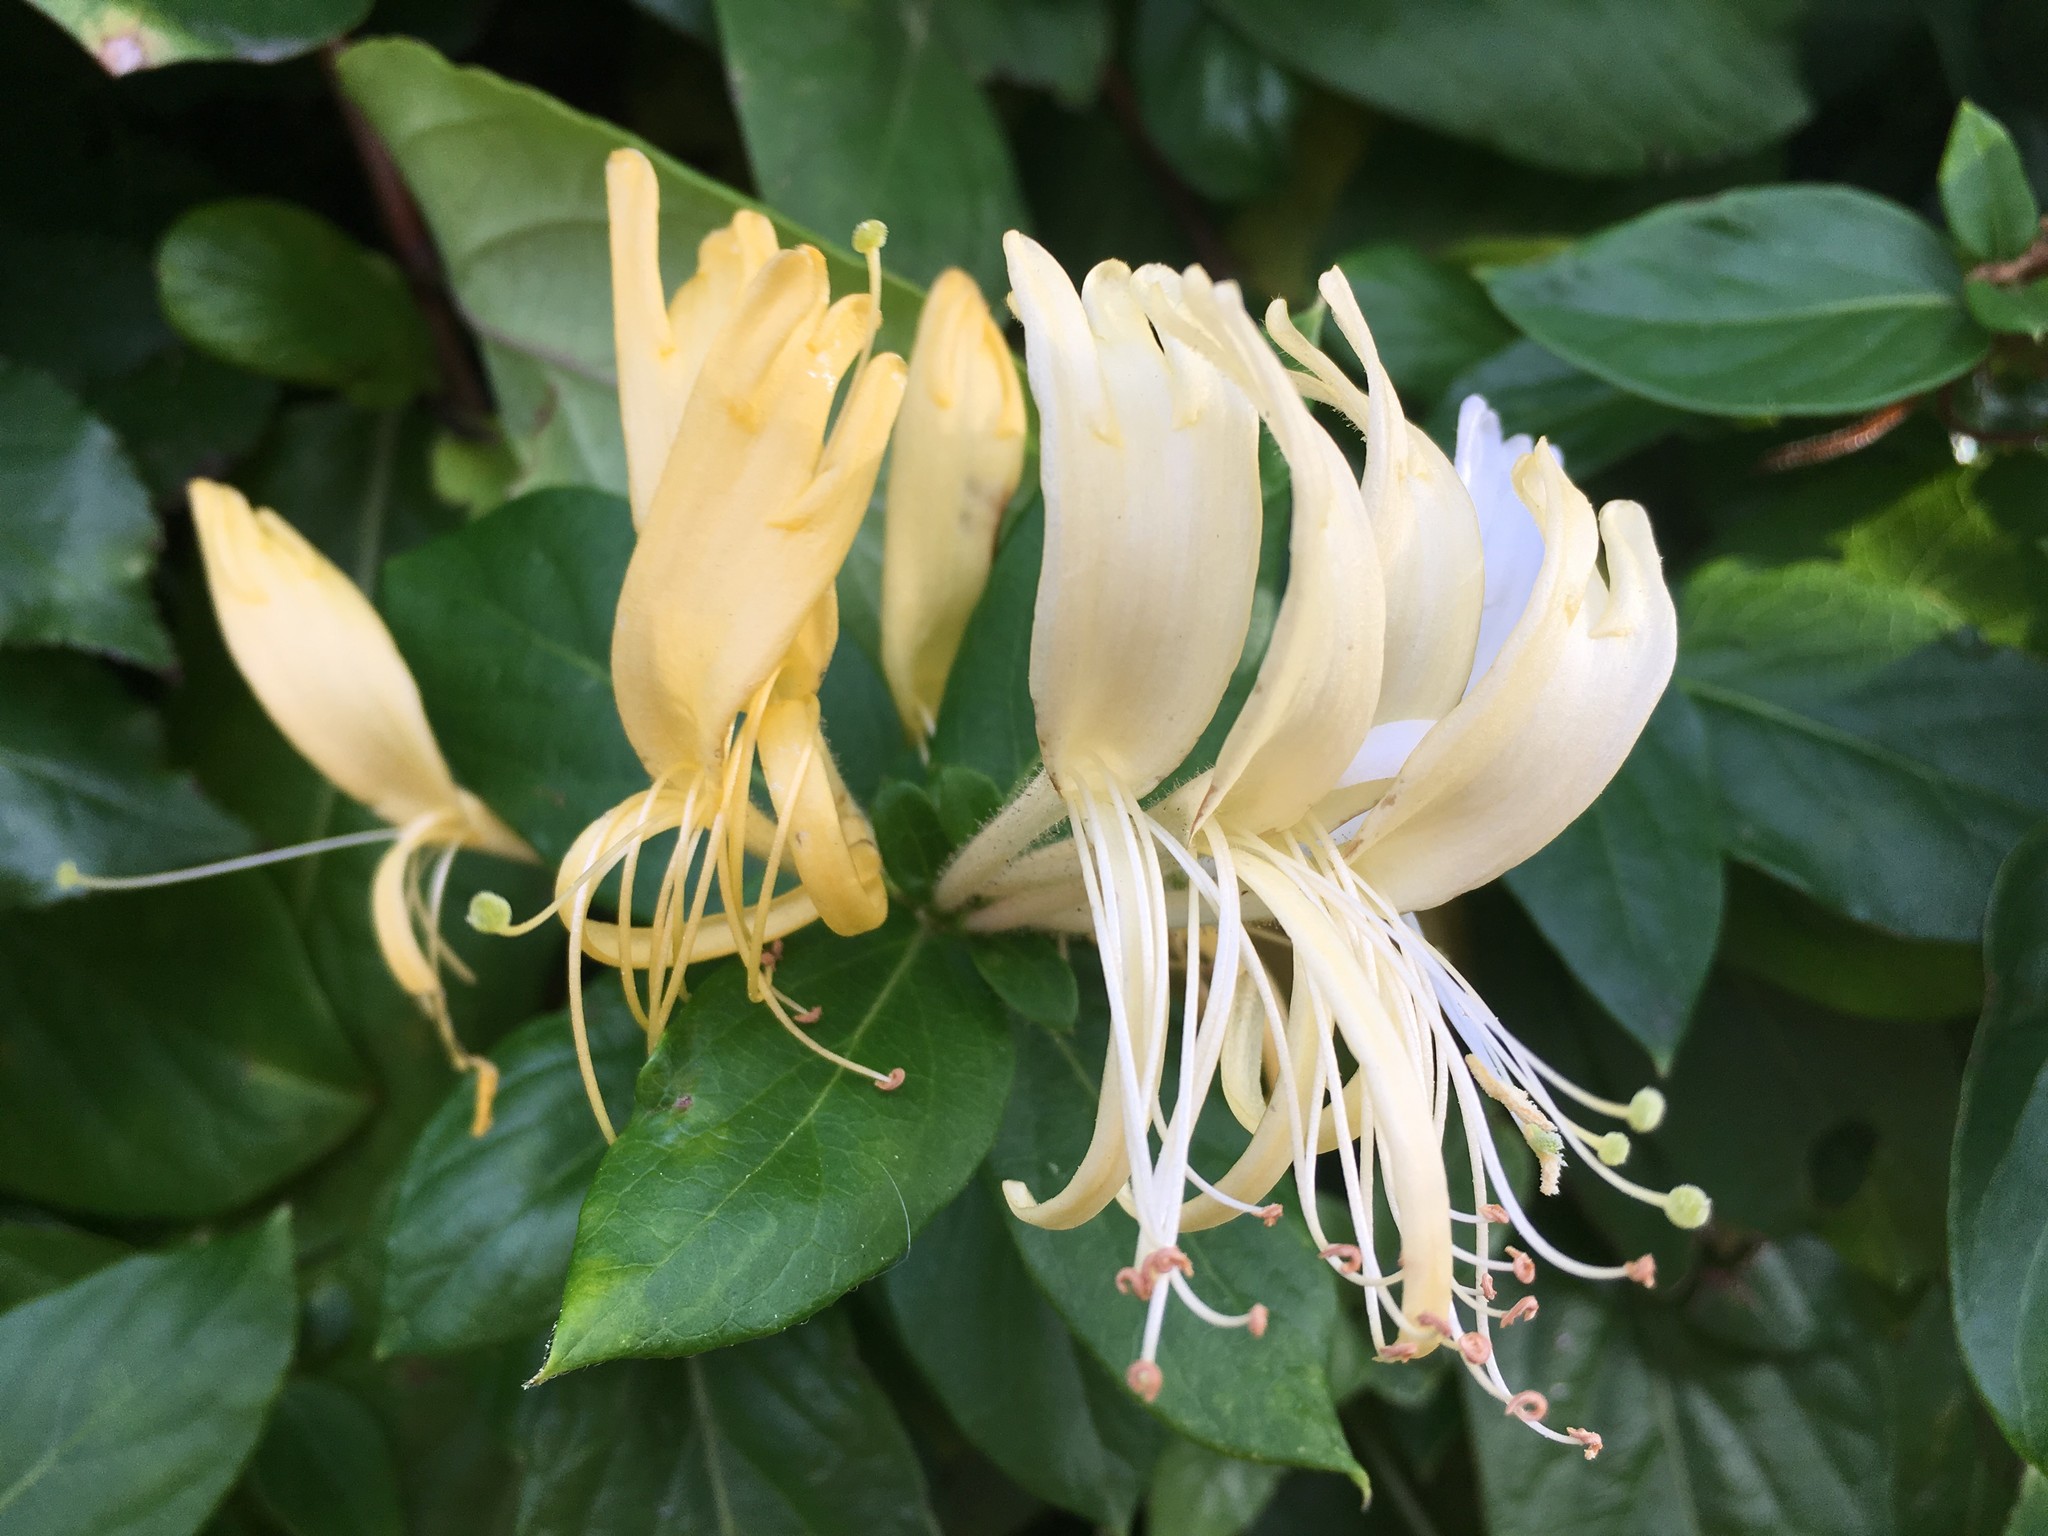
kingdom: Plantae
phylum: Tracheophyta
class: Magnoliopsida
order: Dipsacales
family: Caprifoliaceae
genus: Lonicera
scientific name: Lonicera japonica
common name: Japanese honeysuckle
